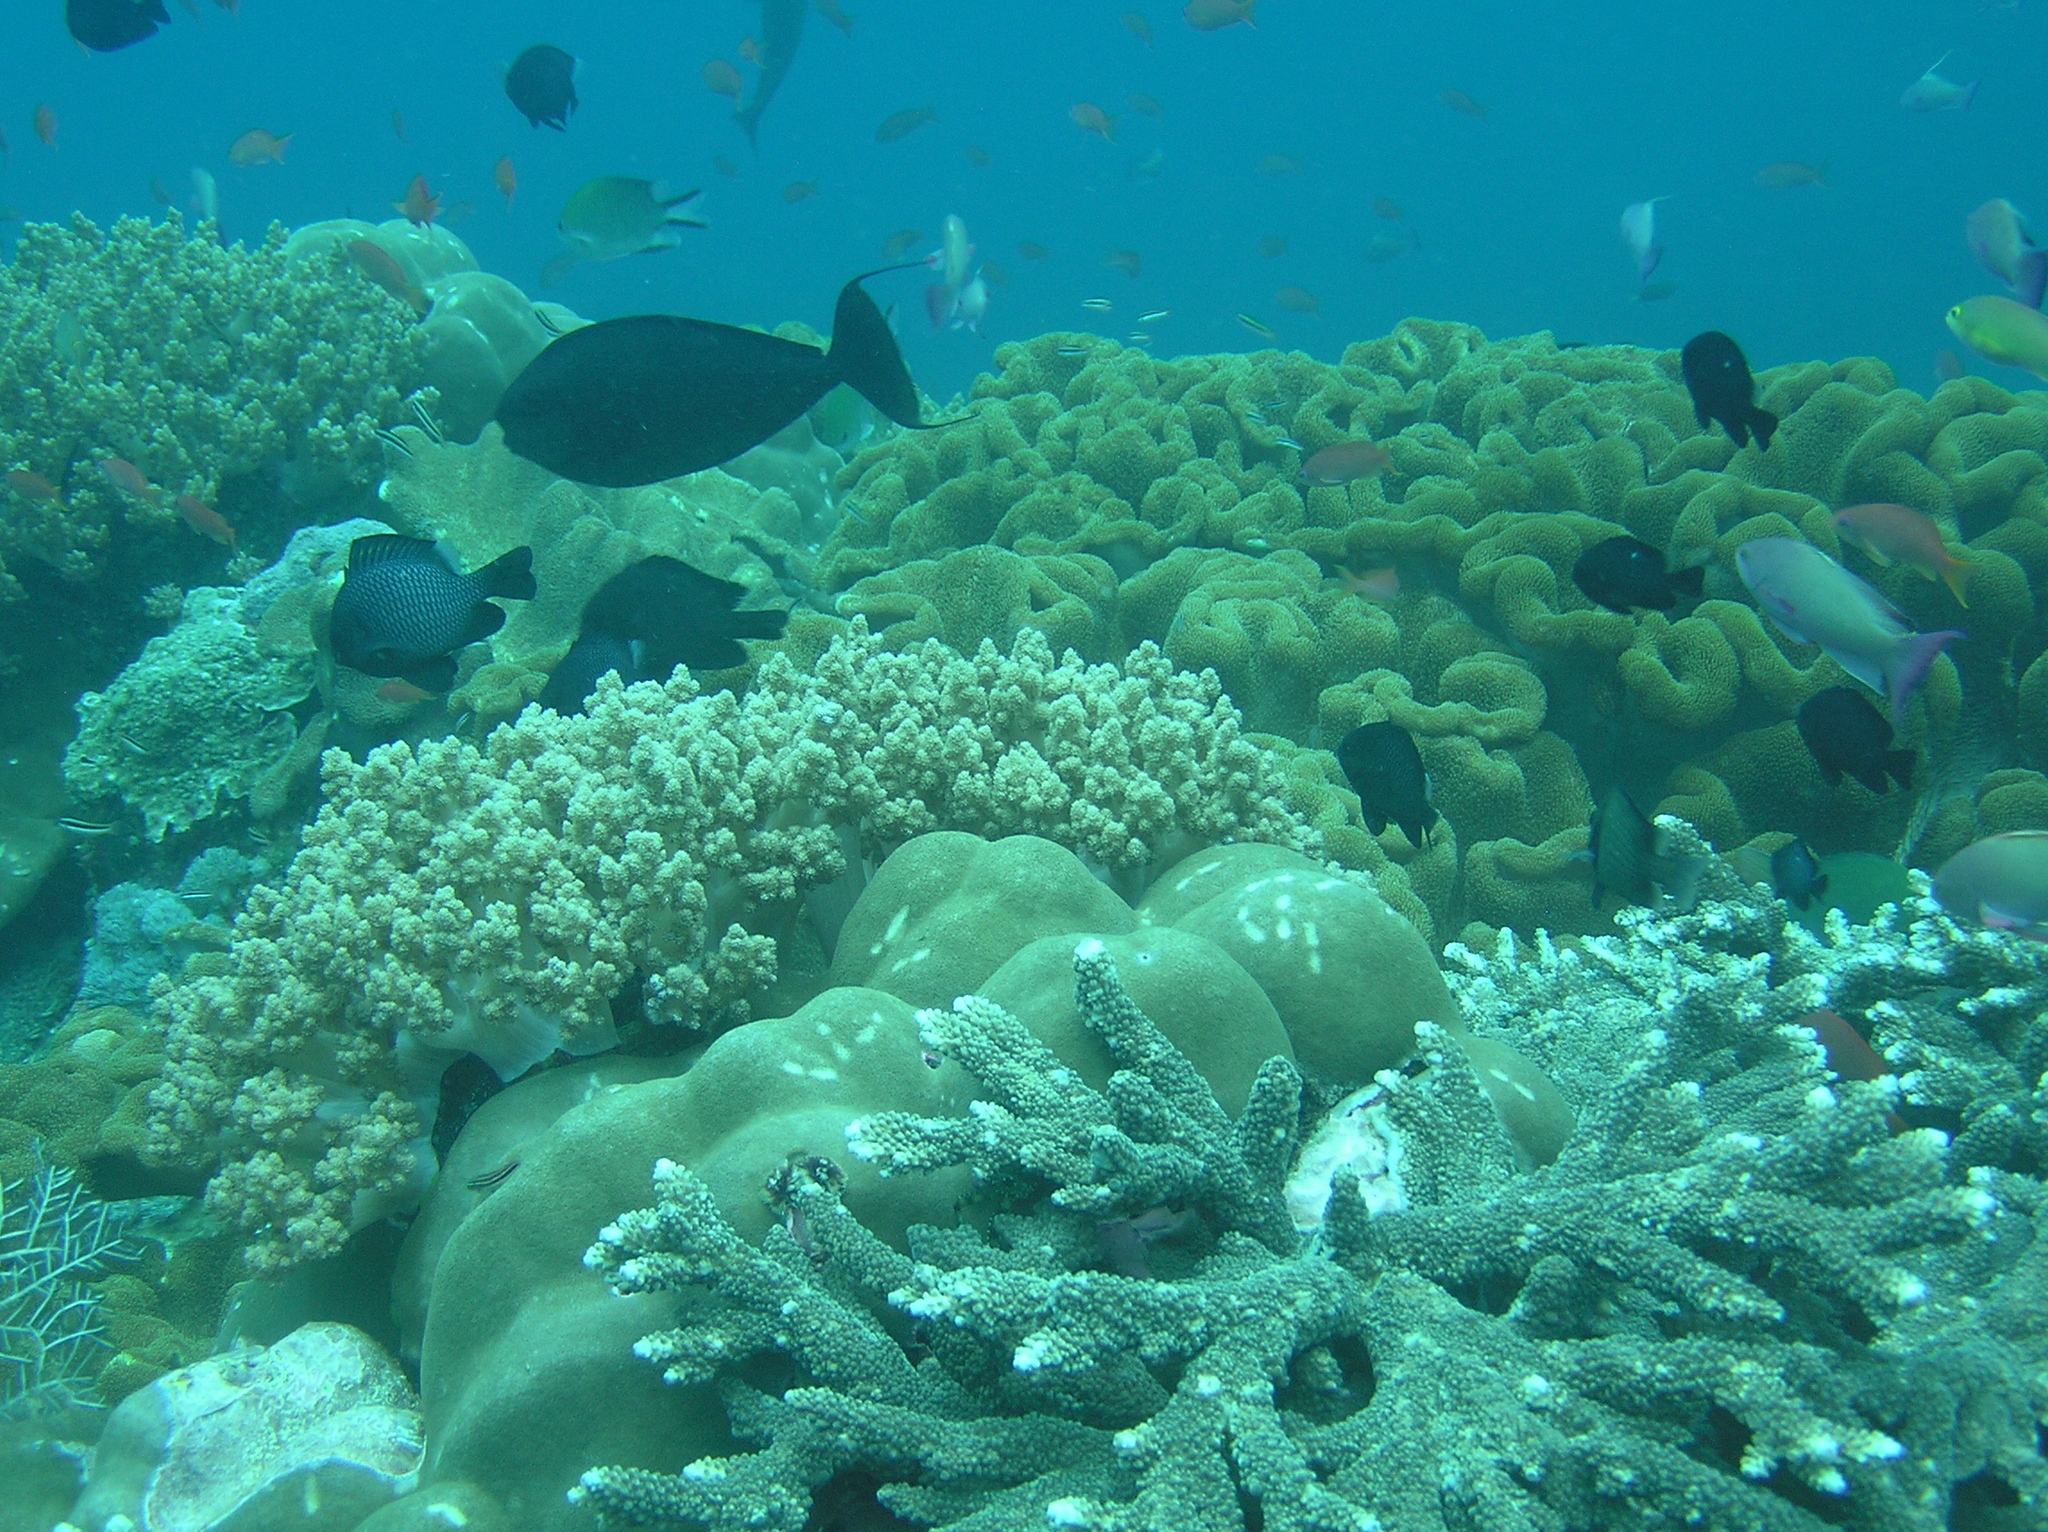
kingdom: Animalia
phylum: Chordata
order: Perciformes
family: Acanthuridae
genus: Naso
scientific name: Naso vlamingii
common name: Big-nose unicorn
